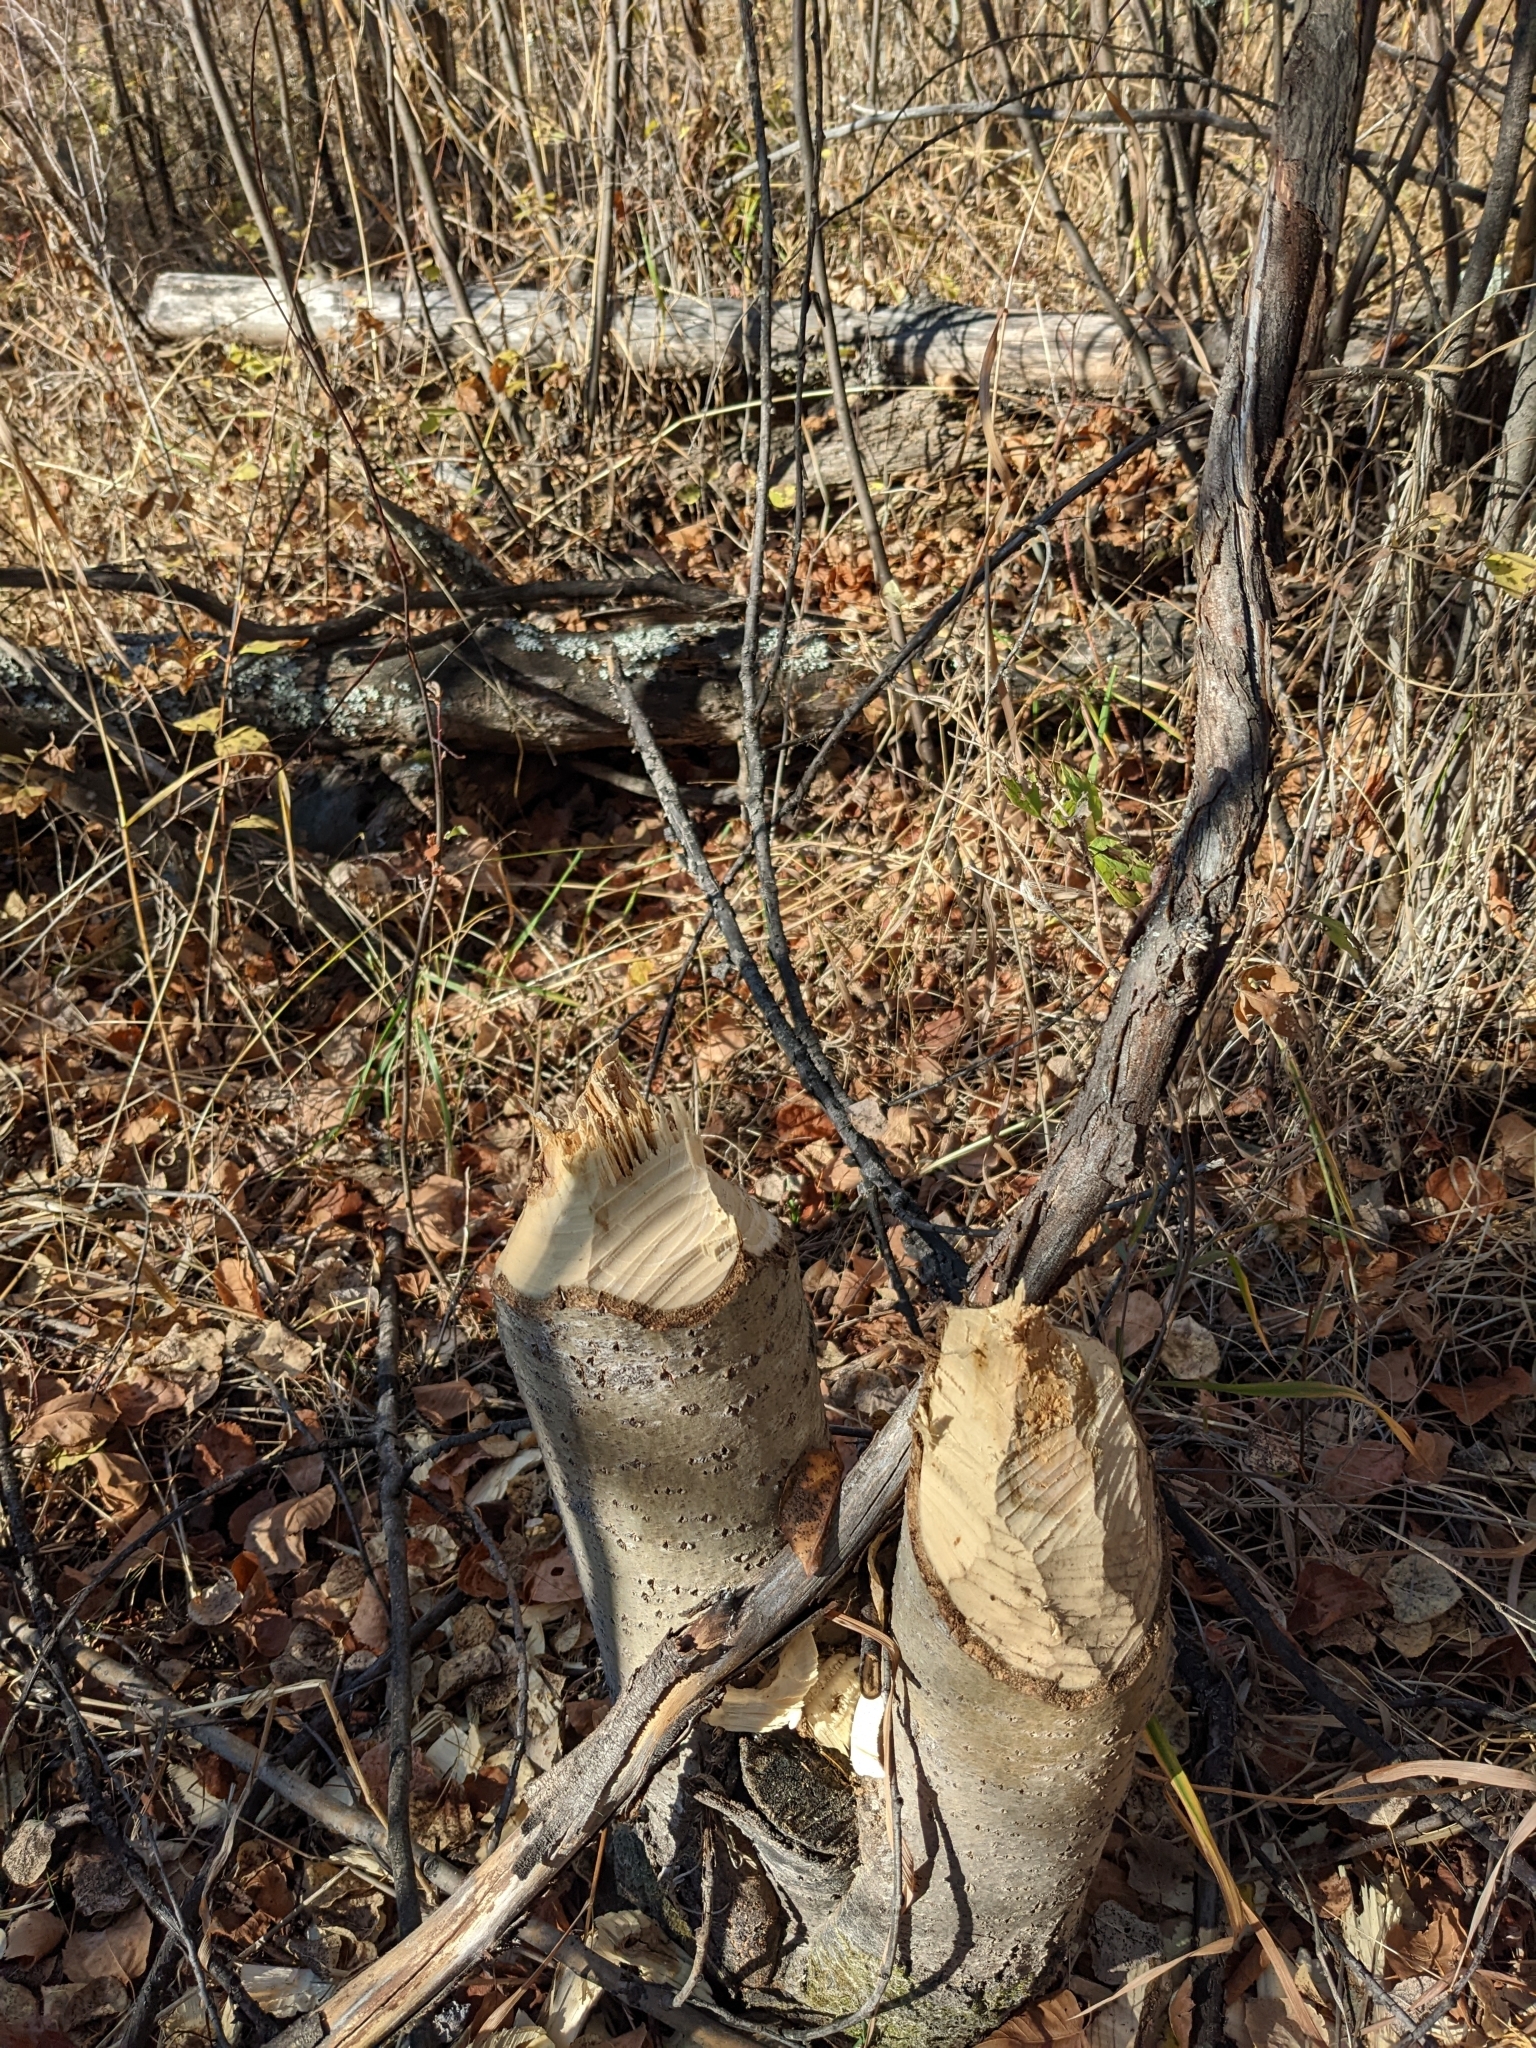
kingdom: Animalia
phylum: Chordata
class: Mammalia
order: Rodentia
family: Castoridae
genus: Castor
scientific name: Castor canadensis
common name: American beaver
